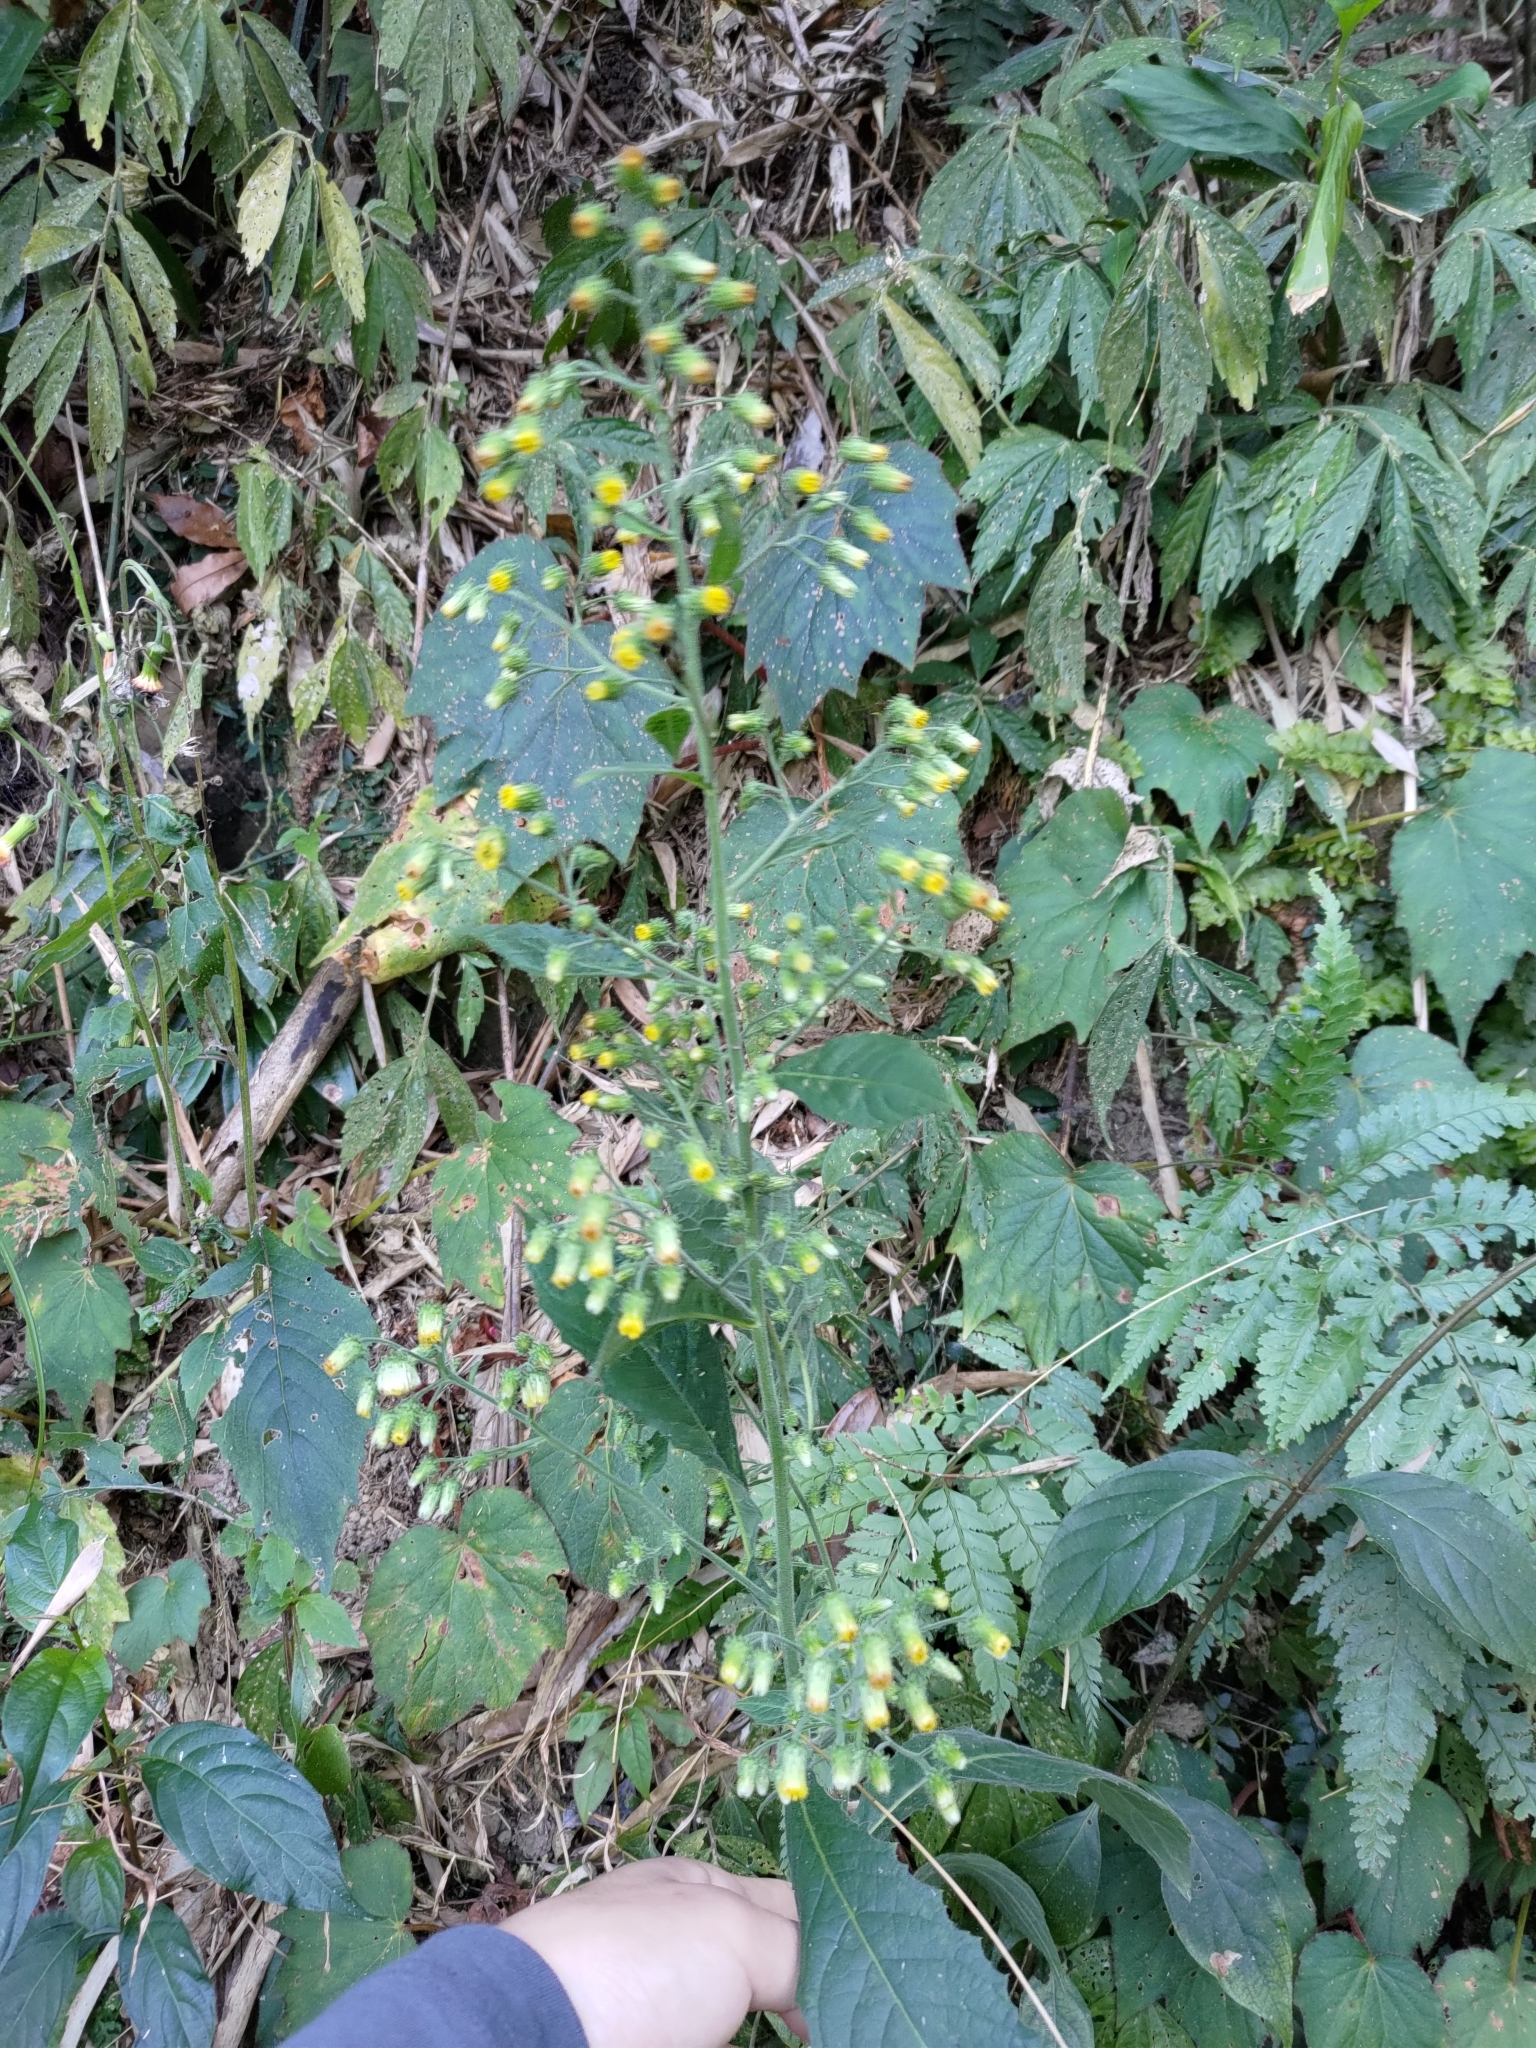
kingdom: Plantae
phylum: Tracheophyta
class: Magnoliopsida
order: Asterales
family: Asteraceae
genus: Blumea
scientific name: Blumea aromatica
